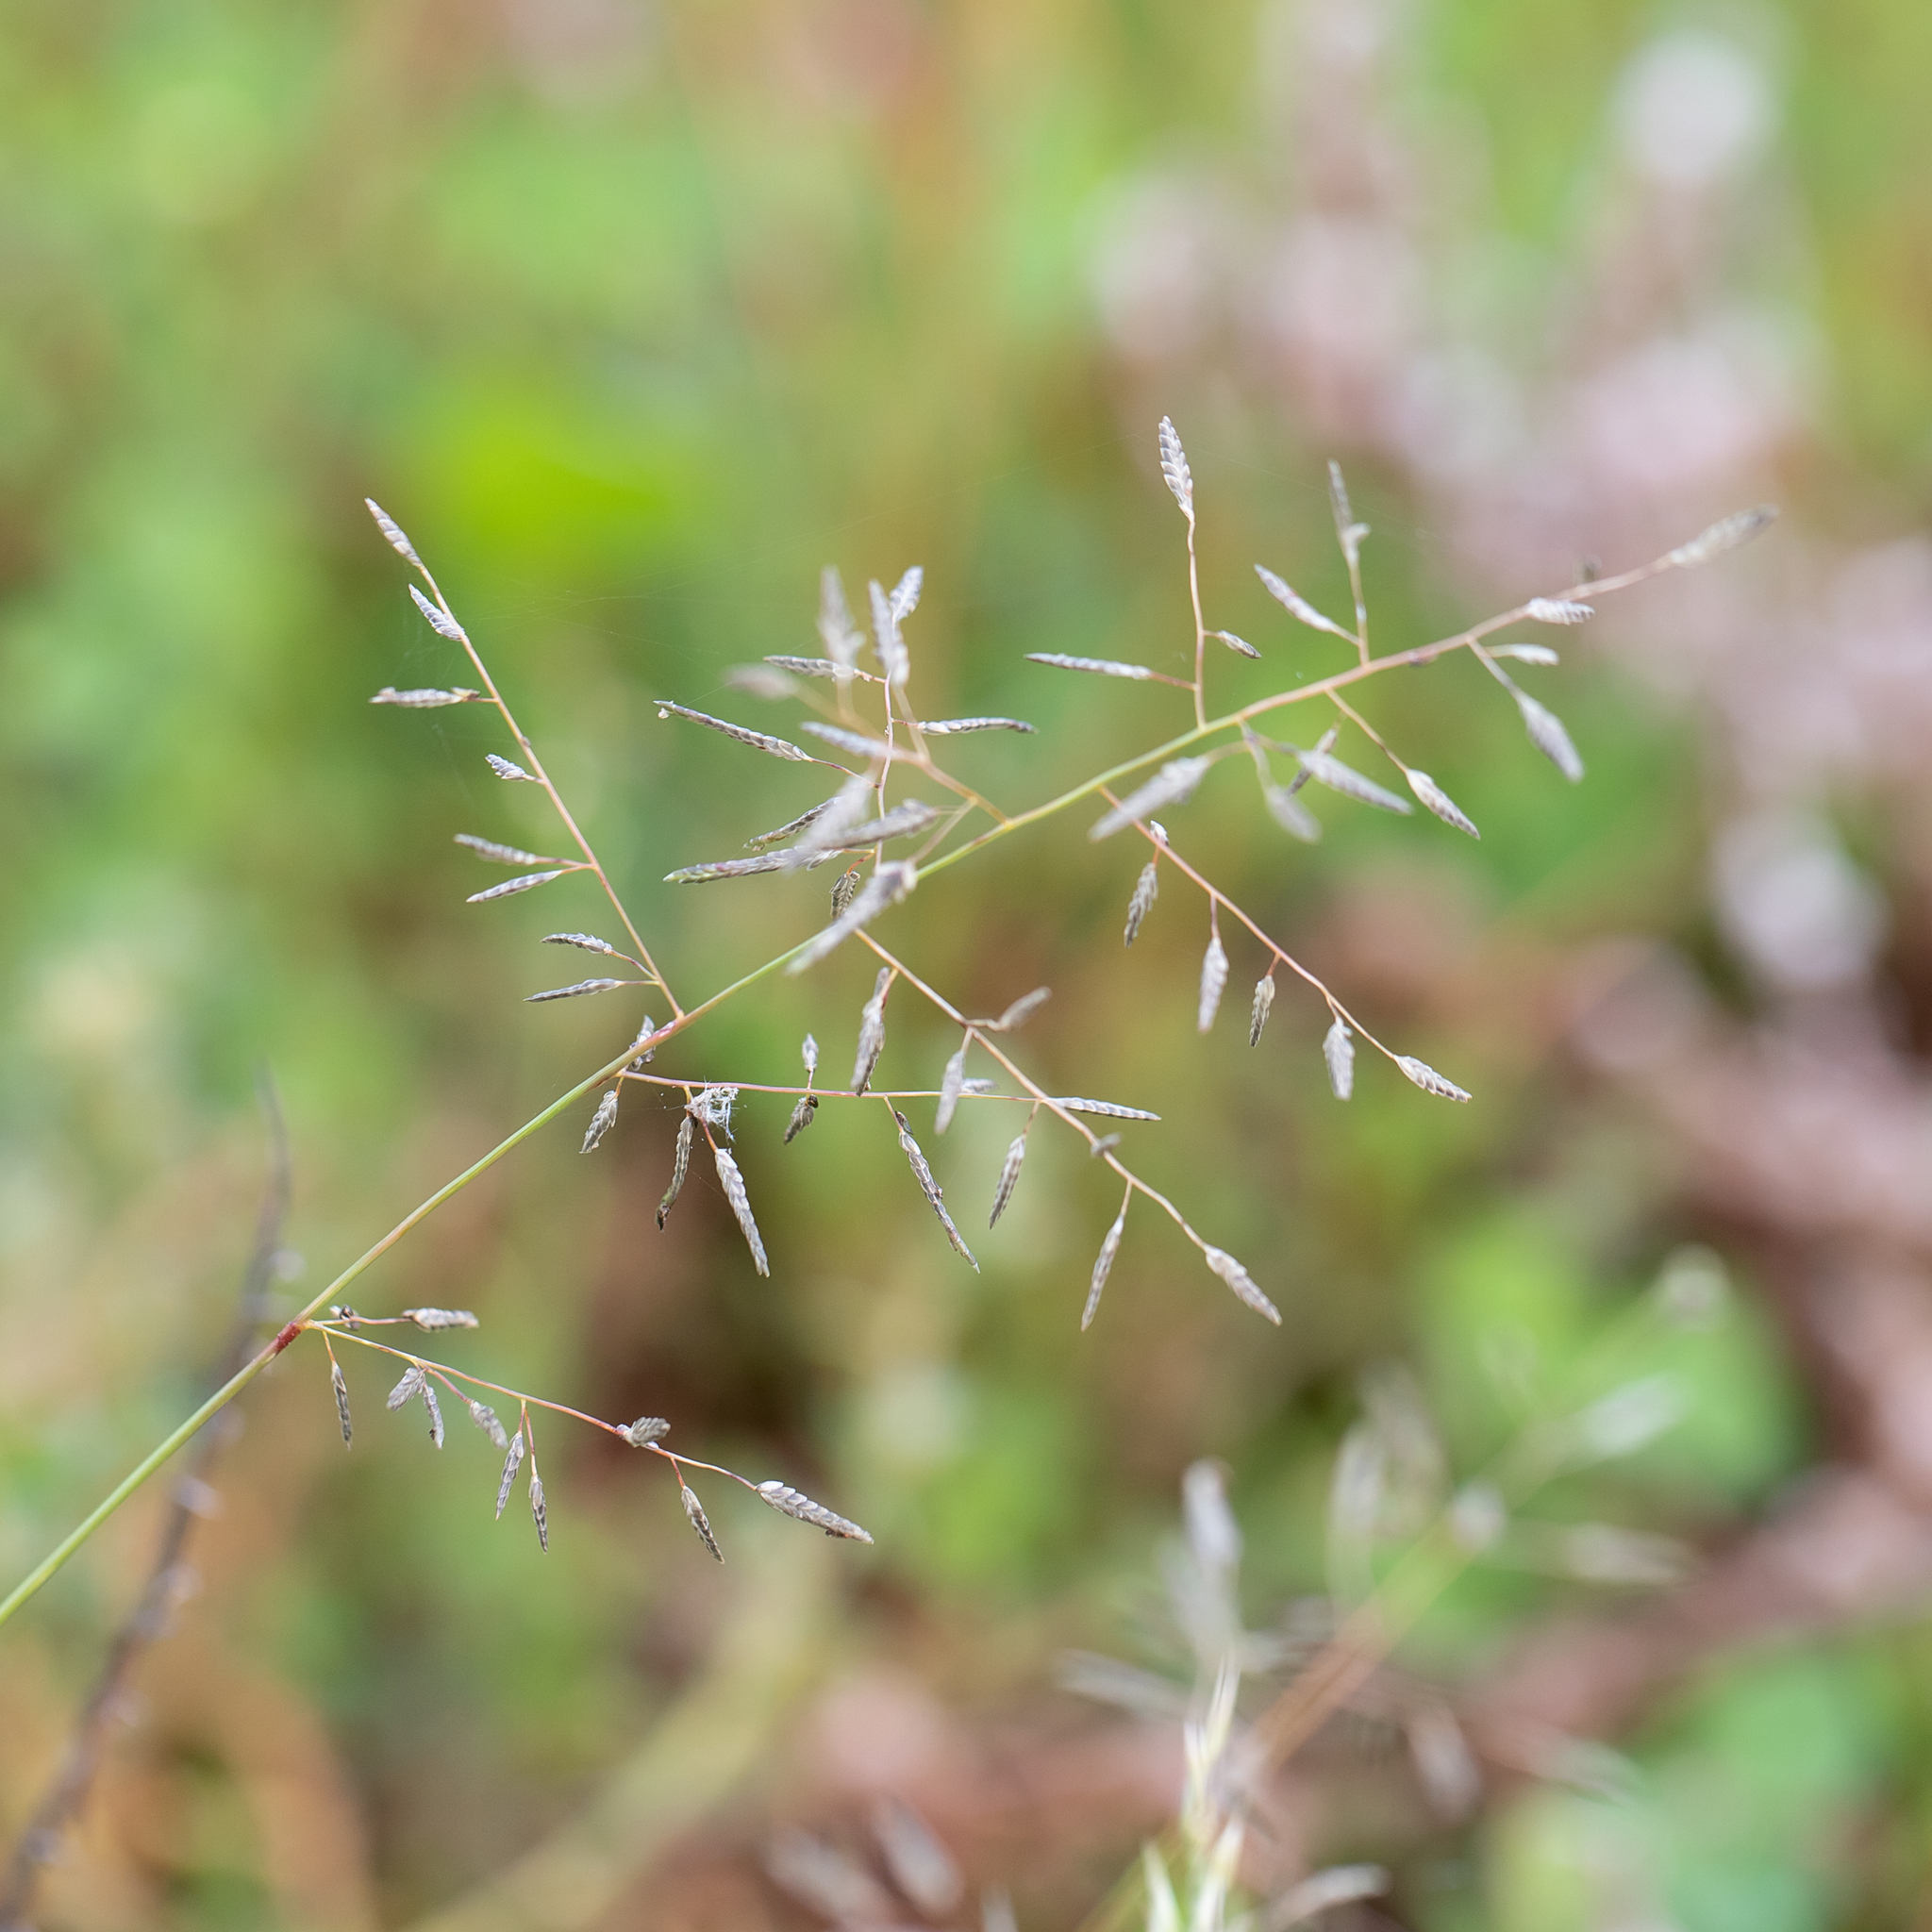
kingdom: Plantae
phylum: Tracheophyta
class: Liliopsida
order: Poales
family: Poaceae
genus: Eragrostis
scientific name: Eragrostis barrelieri
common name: Mediterranean lovegrass
